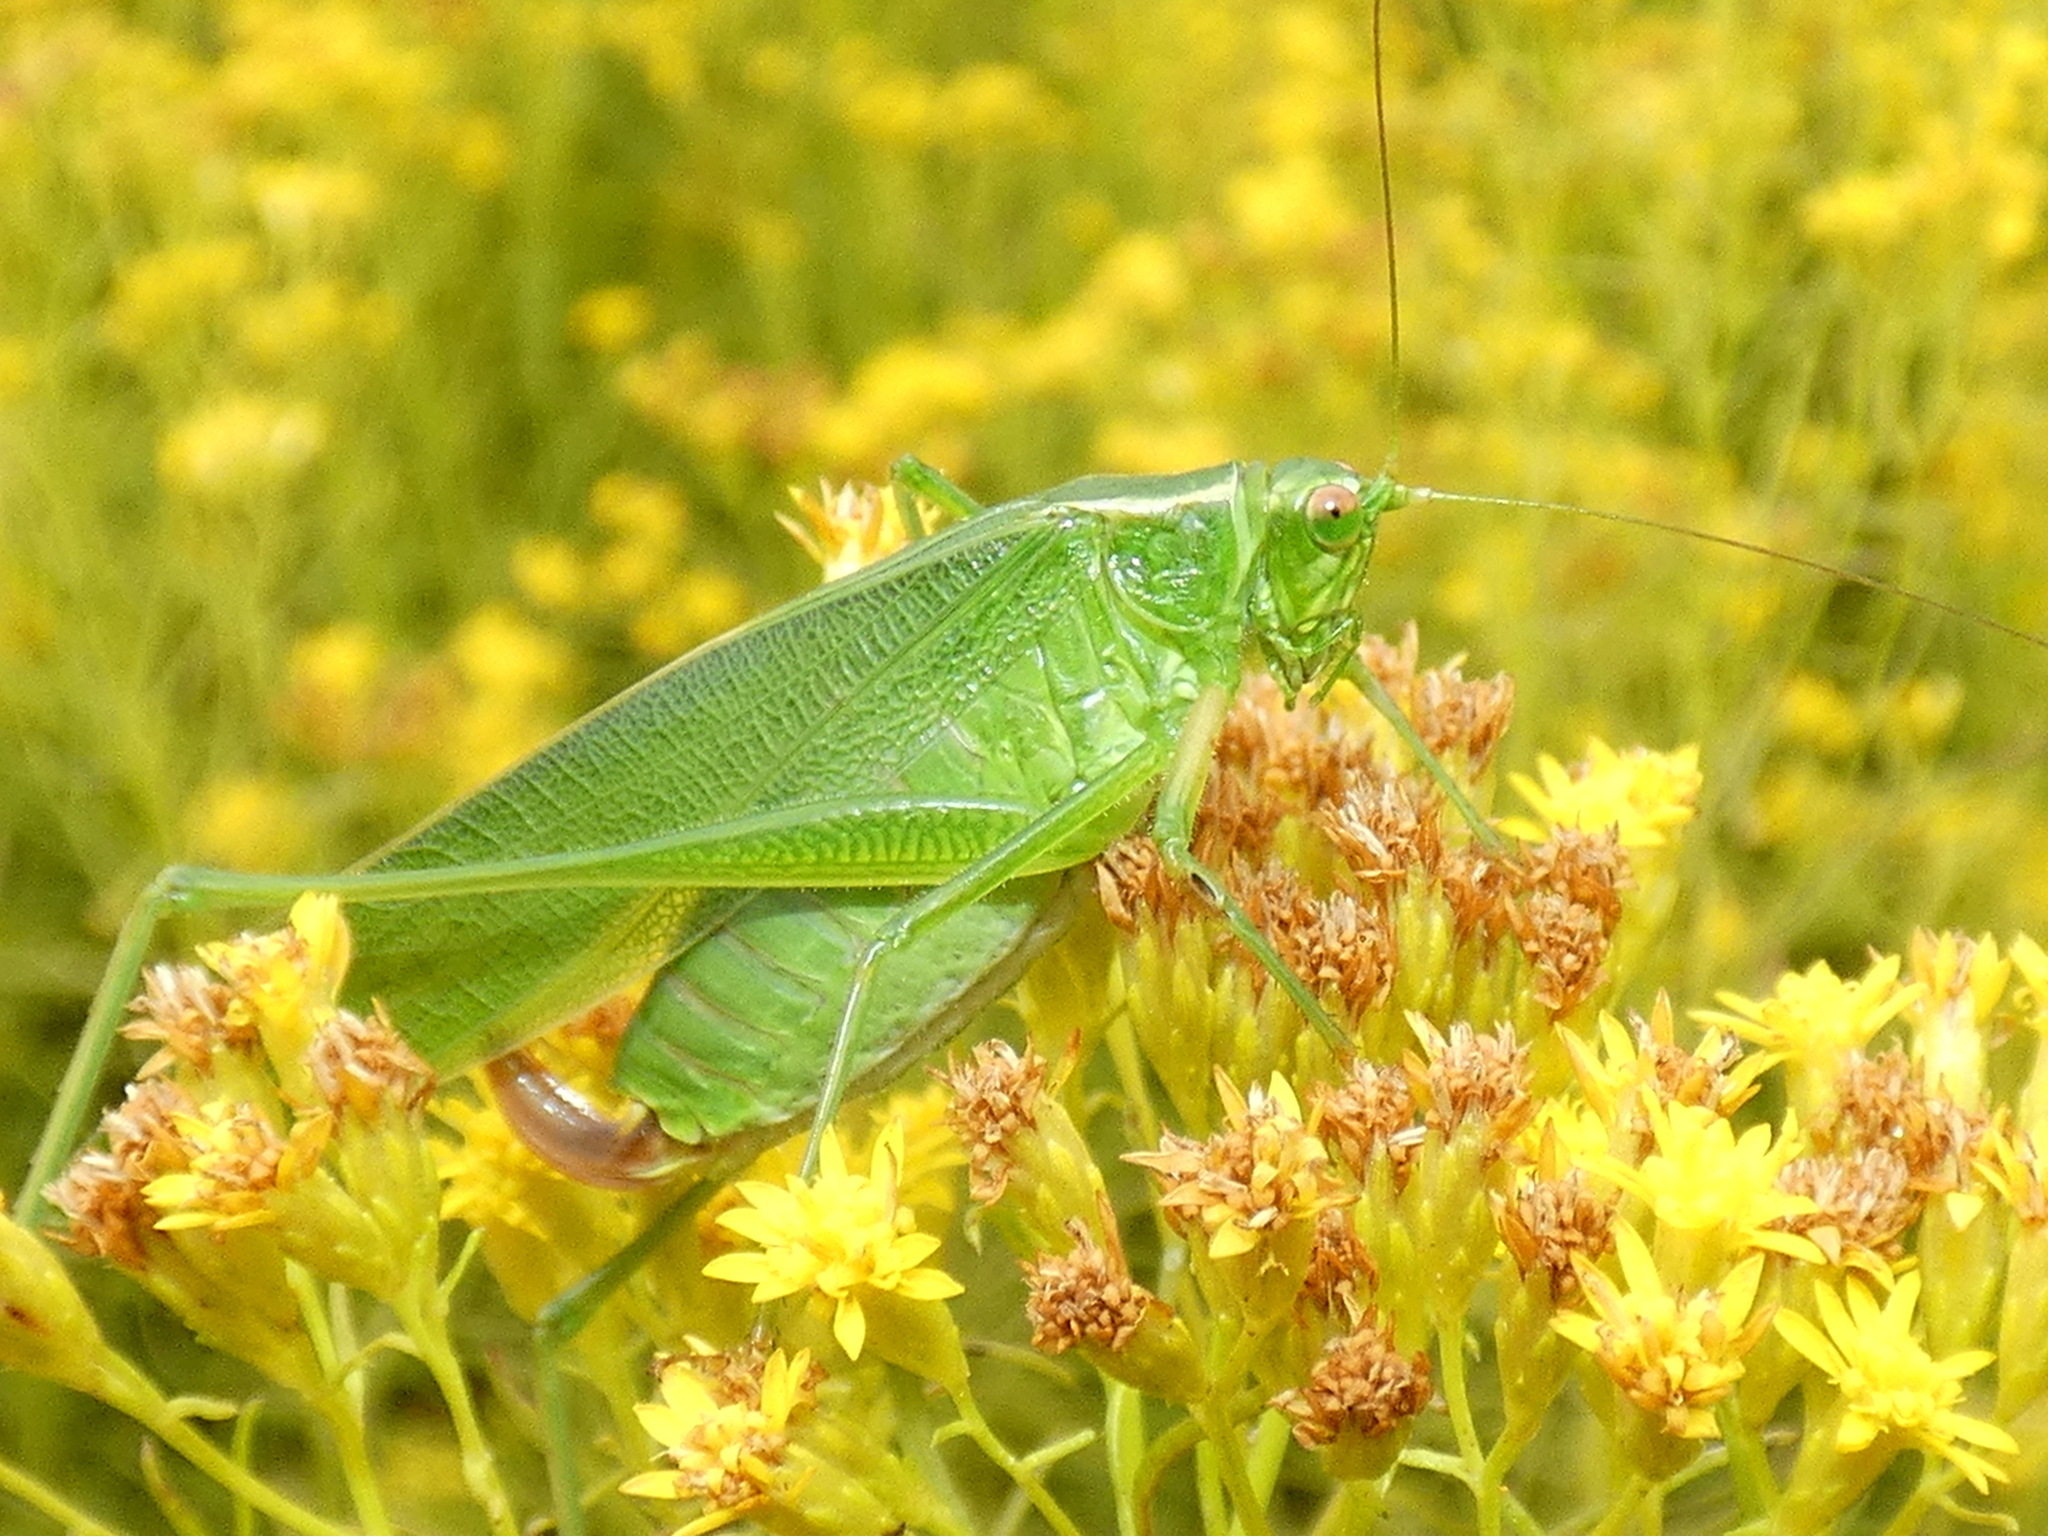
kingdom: Animalia
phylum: Arthropoda
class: Insecta
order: Orthoptera
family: Tettigoniidae
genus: Scudderia
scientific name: Scudderia furcata
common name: Fork-tailed bush katydid
